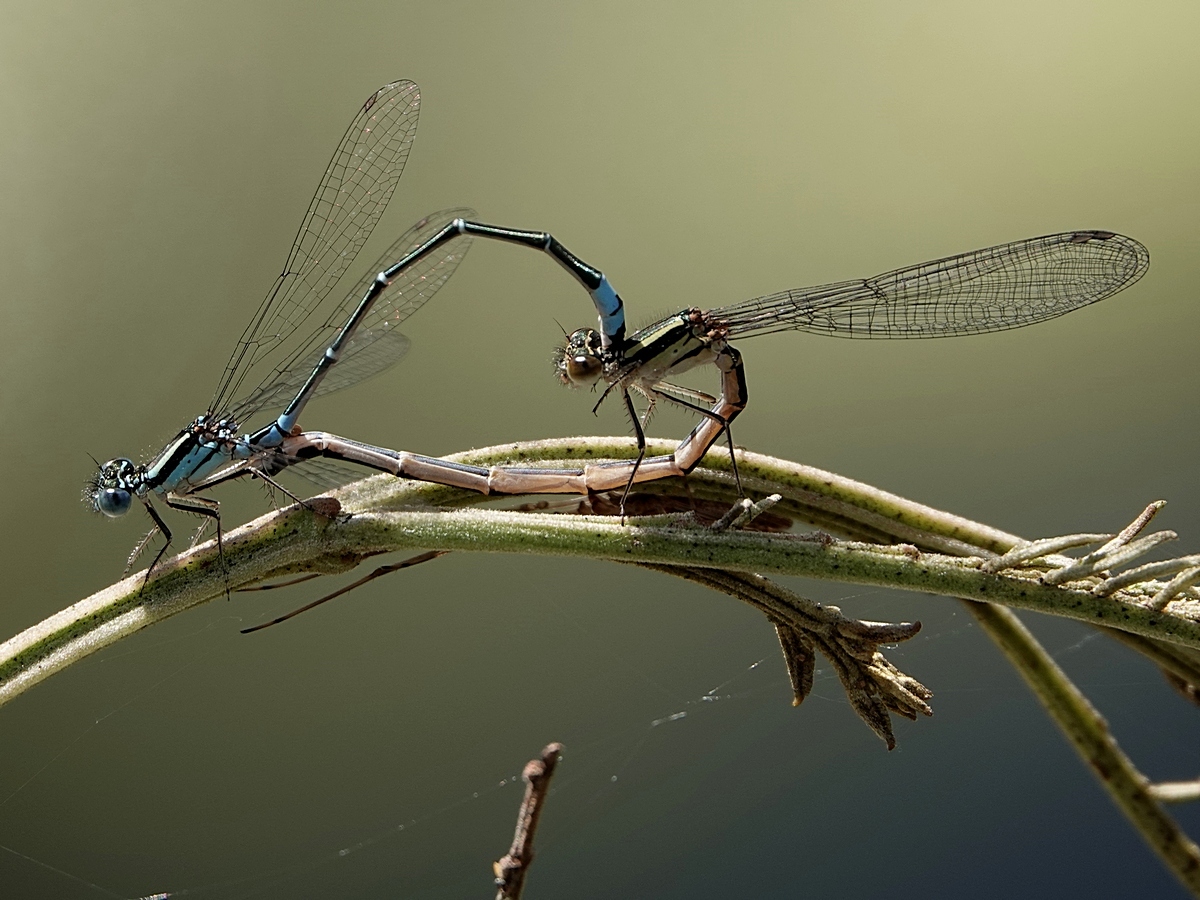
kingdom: Animalia
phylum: Arthropoda
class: Insecta
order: Odonata
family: Coenagrionidae
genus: Austroagrion
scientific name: Austroagrion watsoni
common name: Eastern billabongfly
